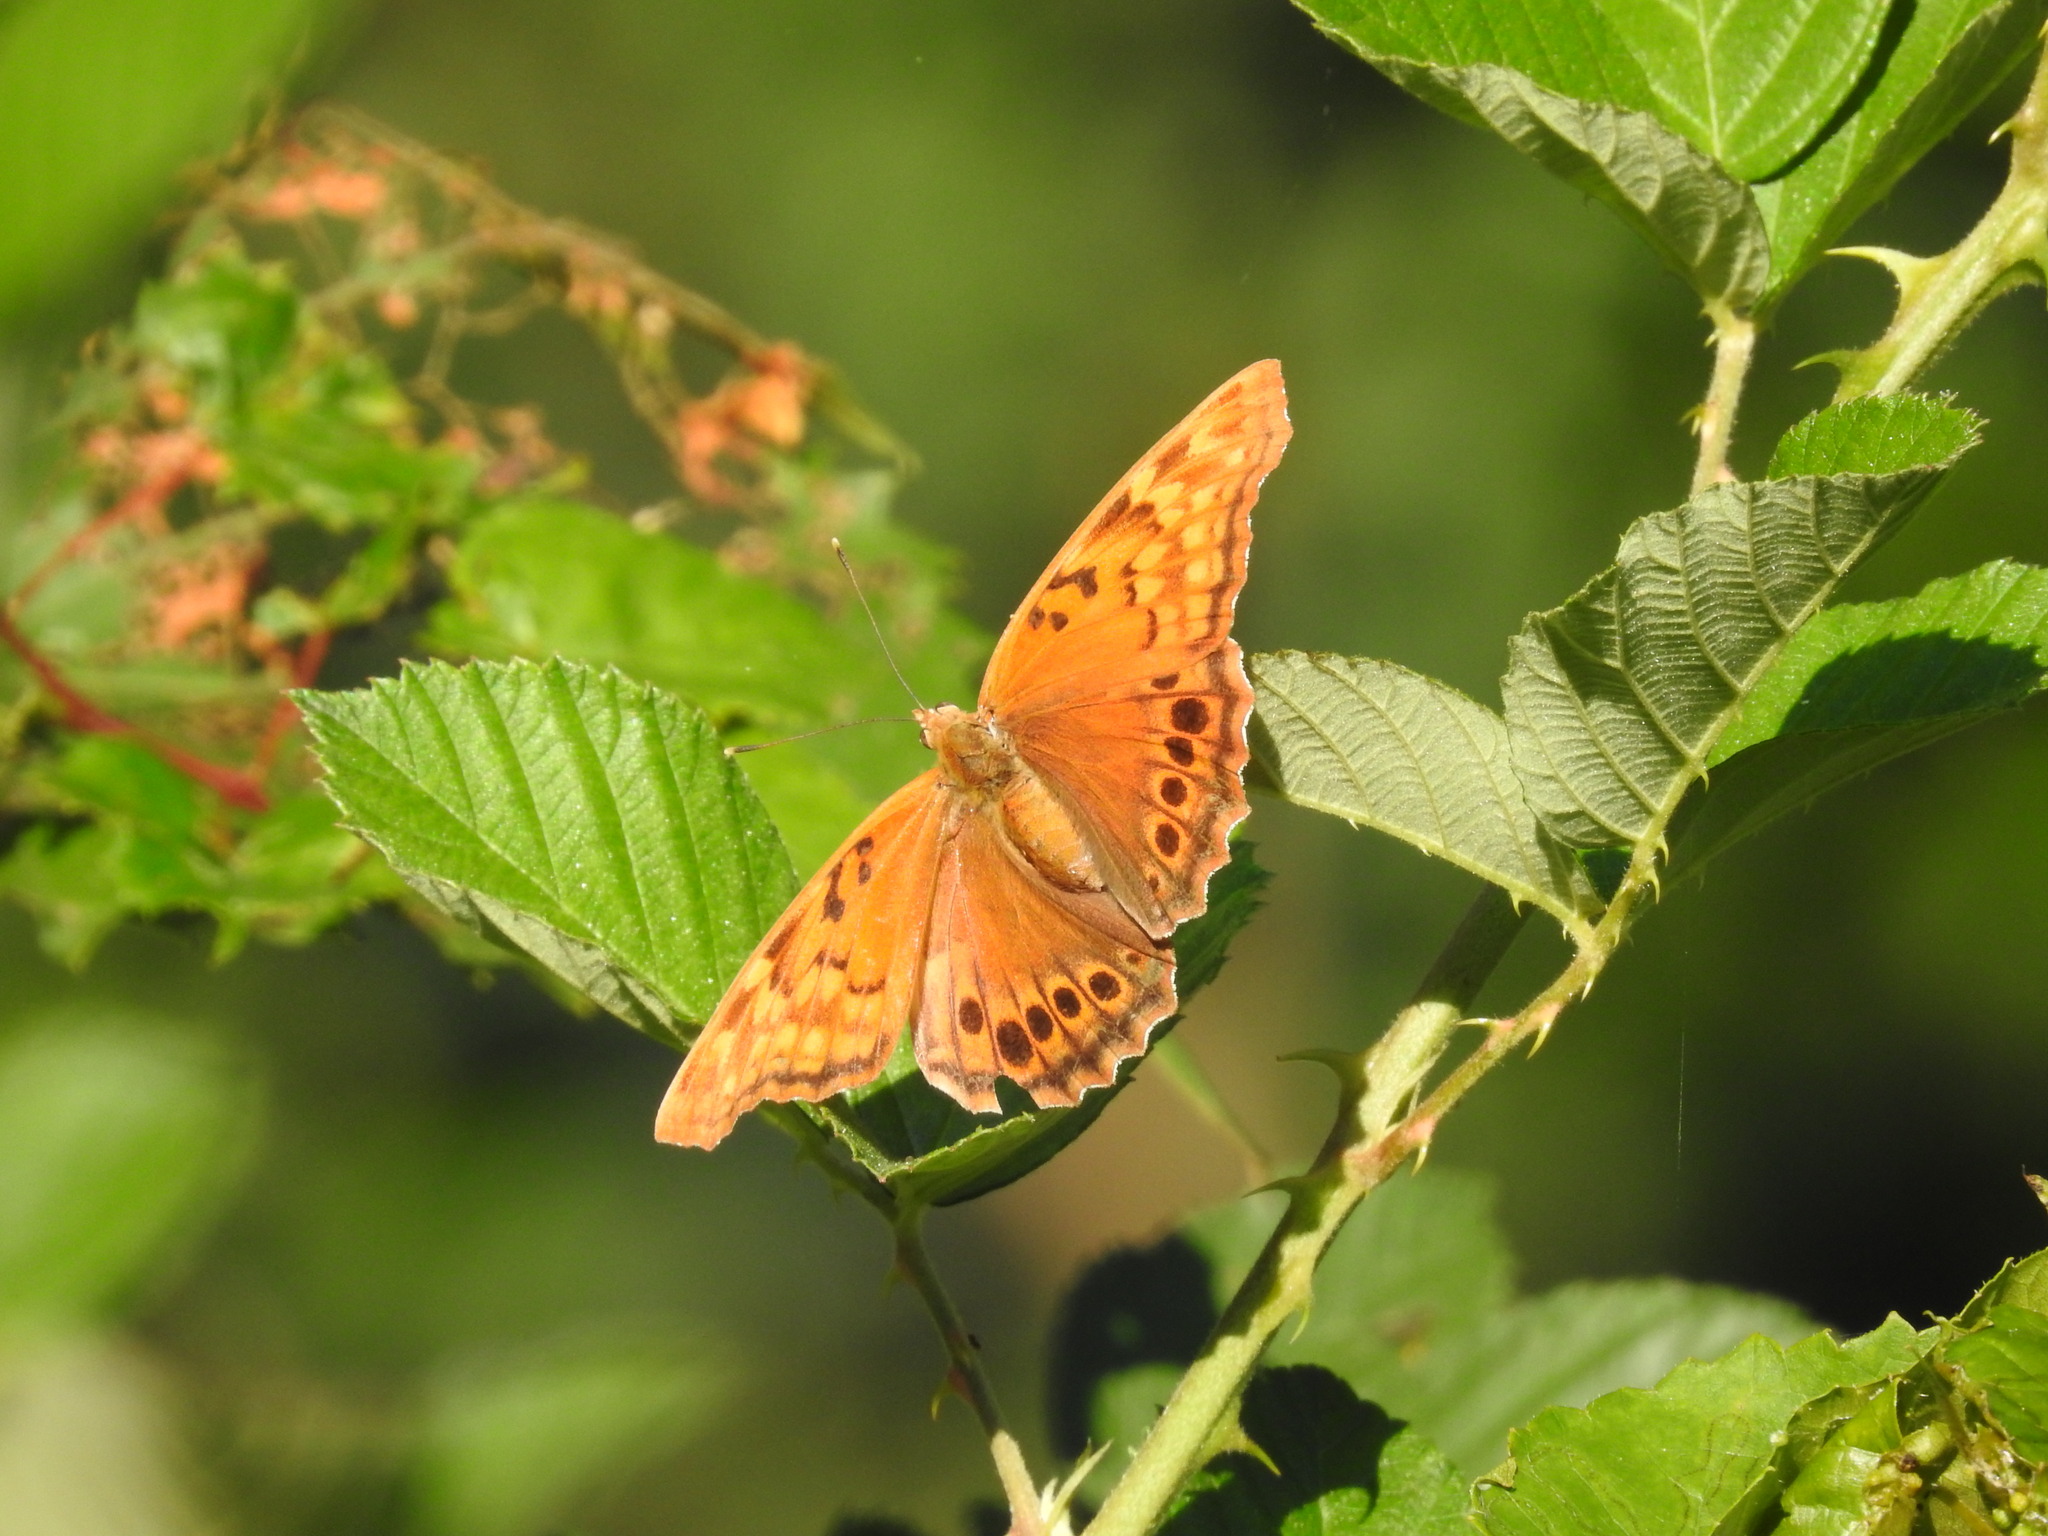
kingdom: Animalia
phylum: Arthropoda
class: Insecta
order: Lepidoptera
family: Nymphalidae
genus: Asterocampa
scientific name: Asterocampa clyton
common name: Tawny emperor
